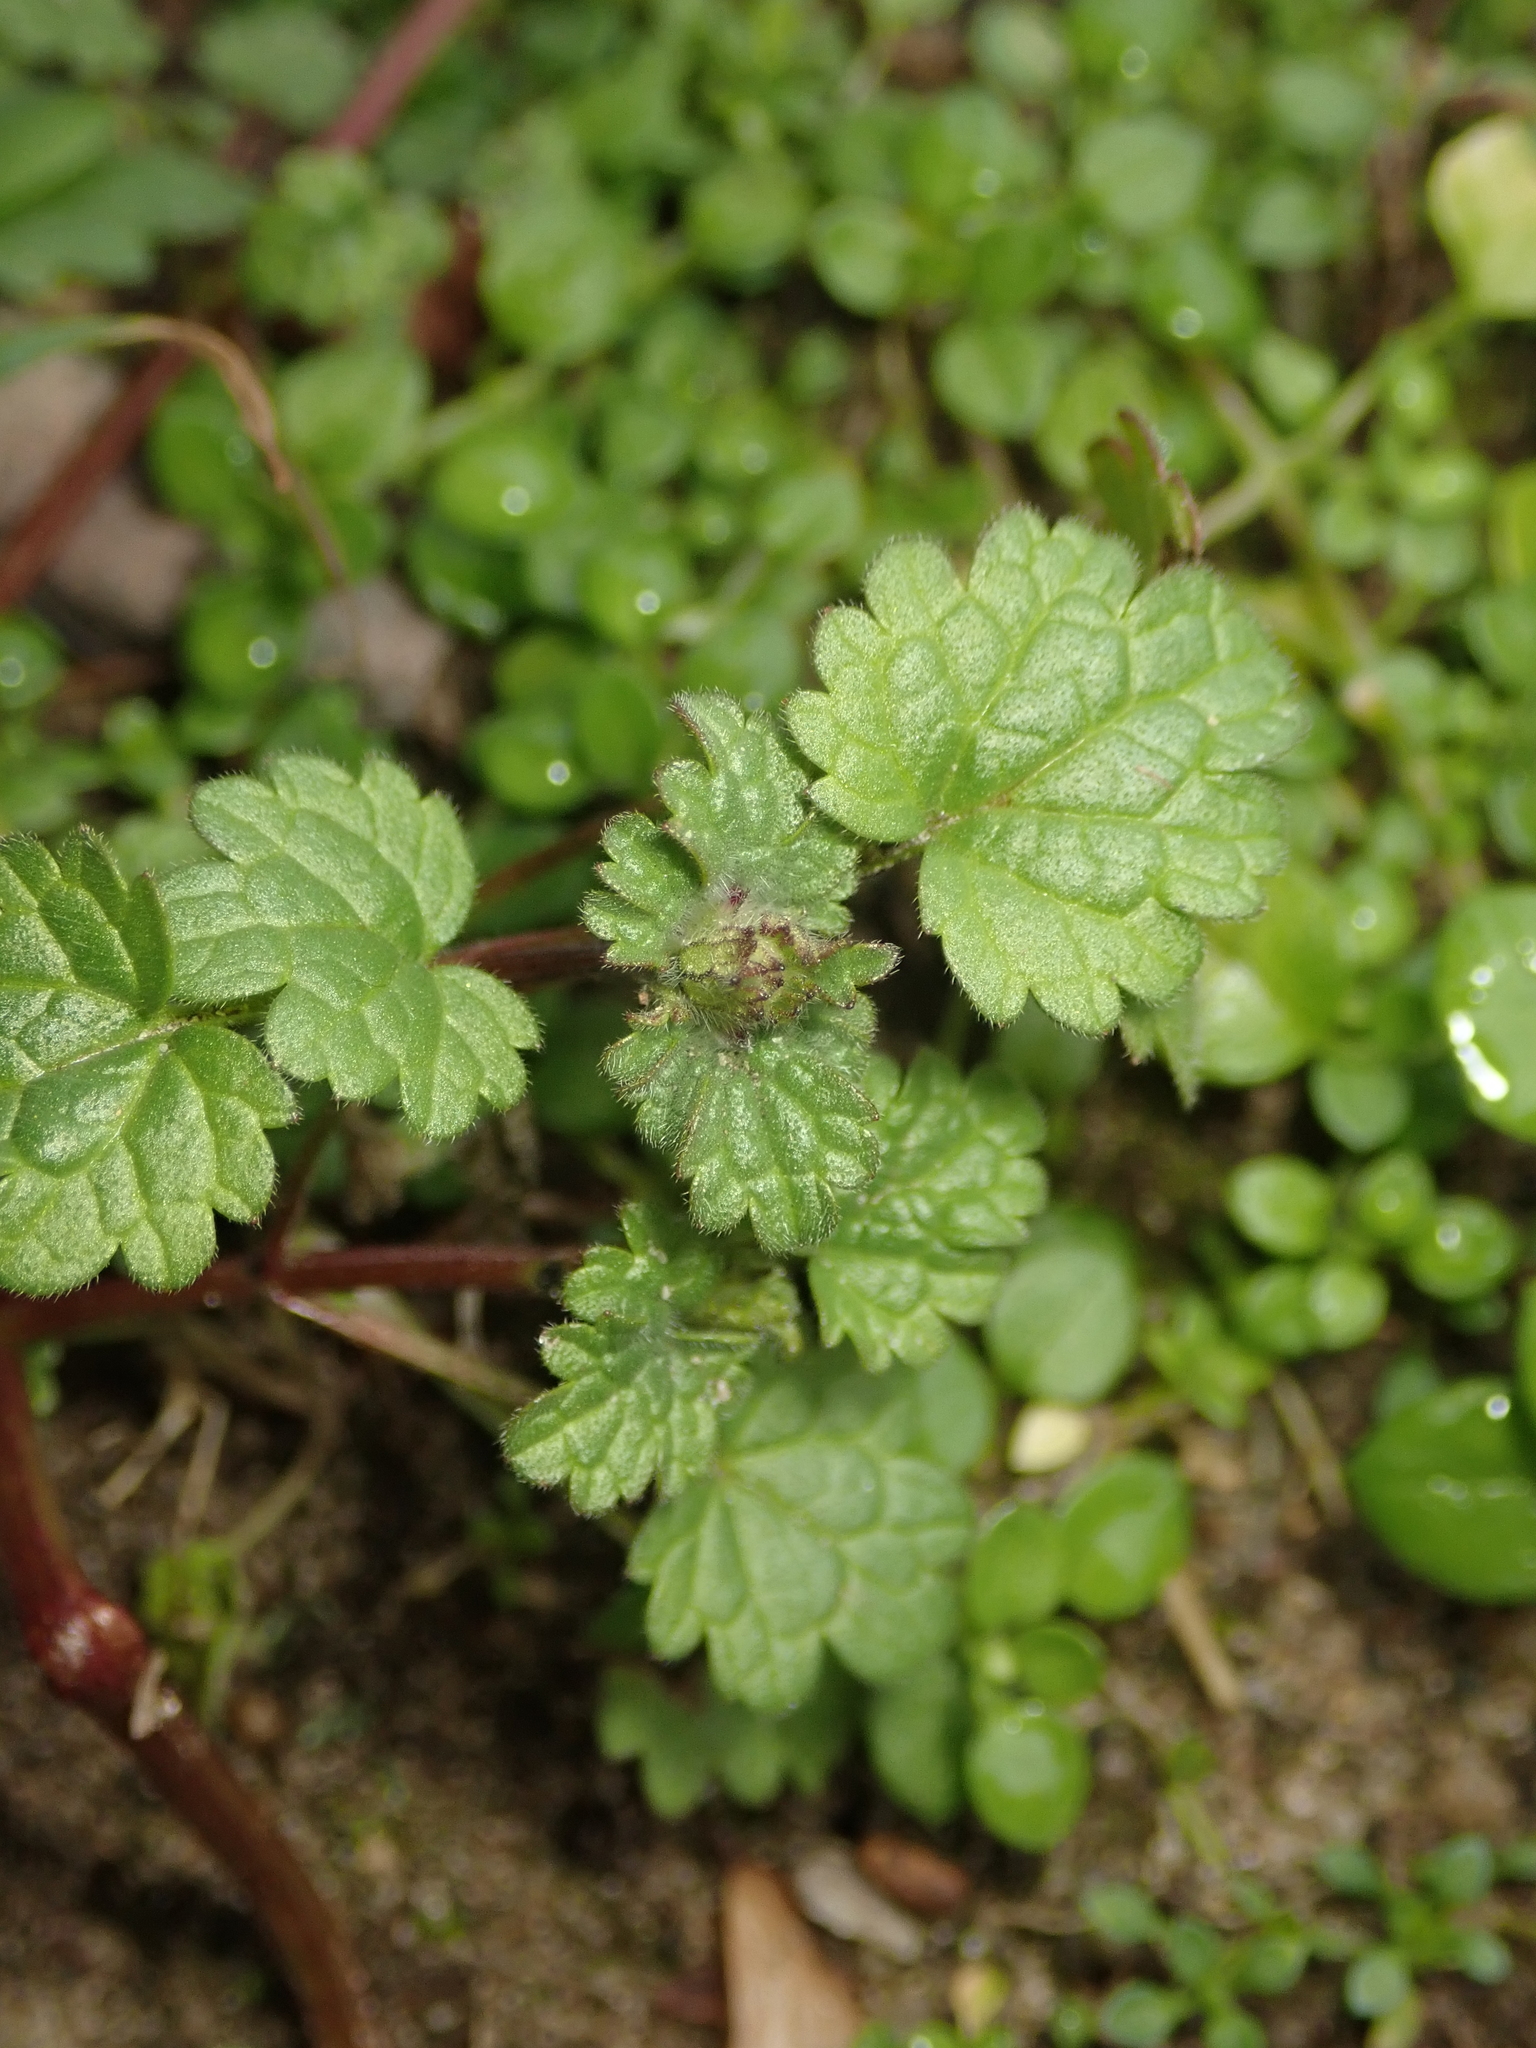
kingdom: Plantae
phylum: Tracheophyta
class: Magnoliopsida
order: Lamiales
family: Lamiaceae
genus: Lamium
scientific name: Lamium amplexicaule
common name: Henbit dead-nettle
